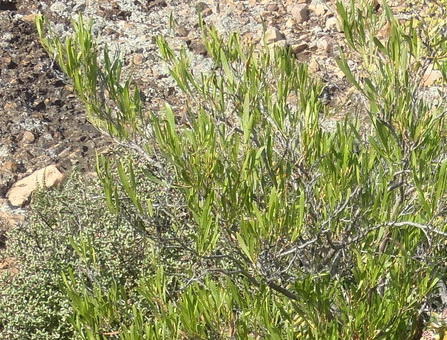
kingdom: Plantae
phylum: Tracheophyta
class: Magnoliopsida
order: Sapindales
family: Sapindaceae
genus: Dodonaea
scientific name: Dodonaea viscosa
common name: Hopbush
